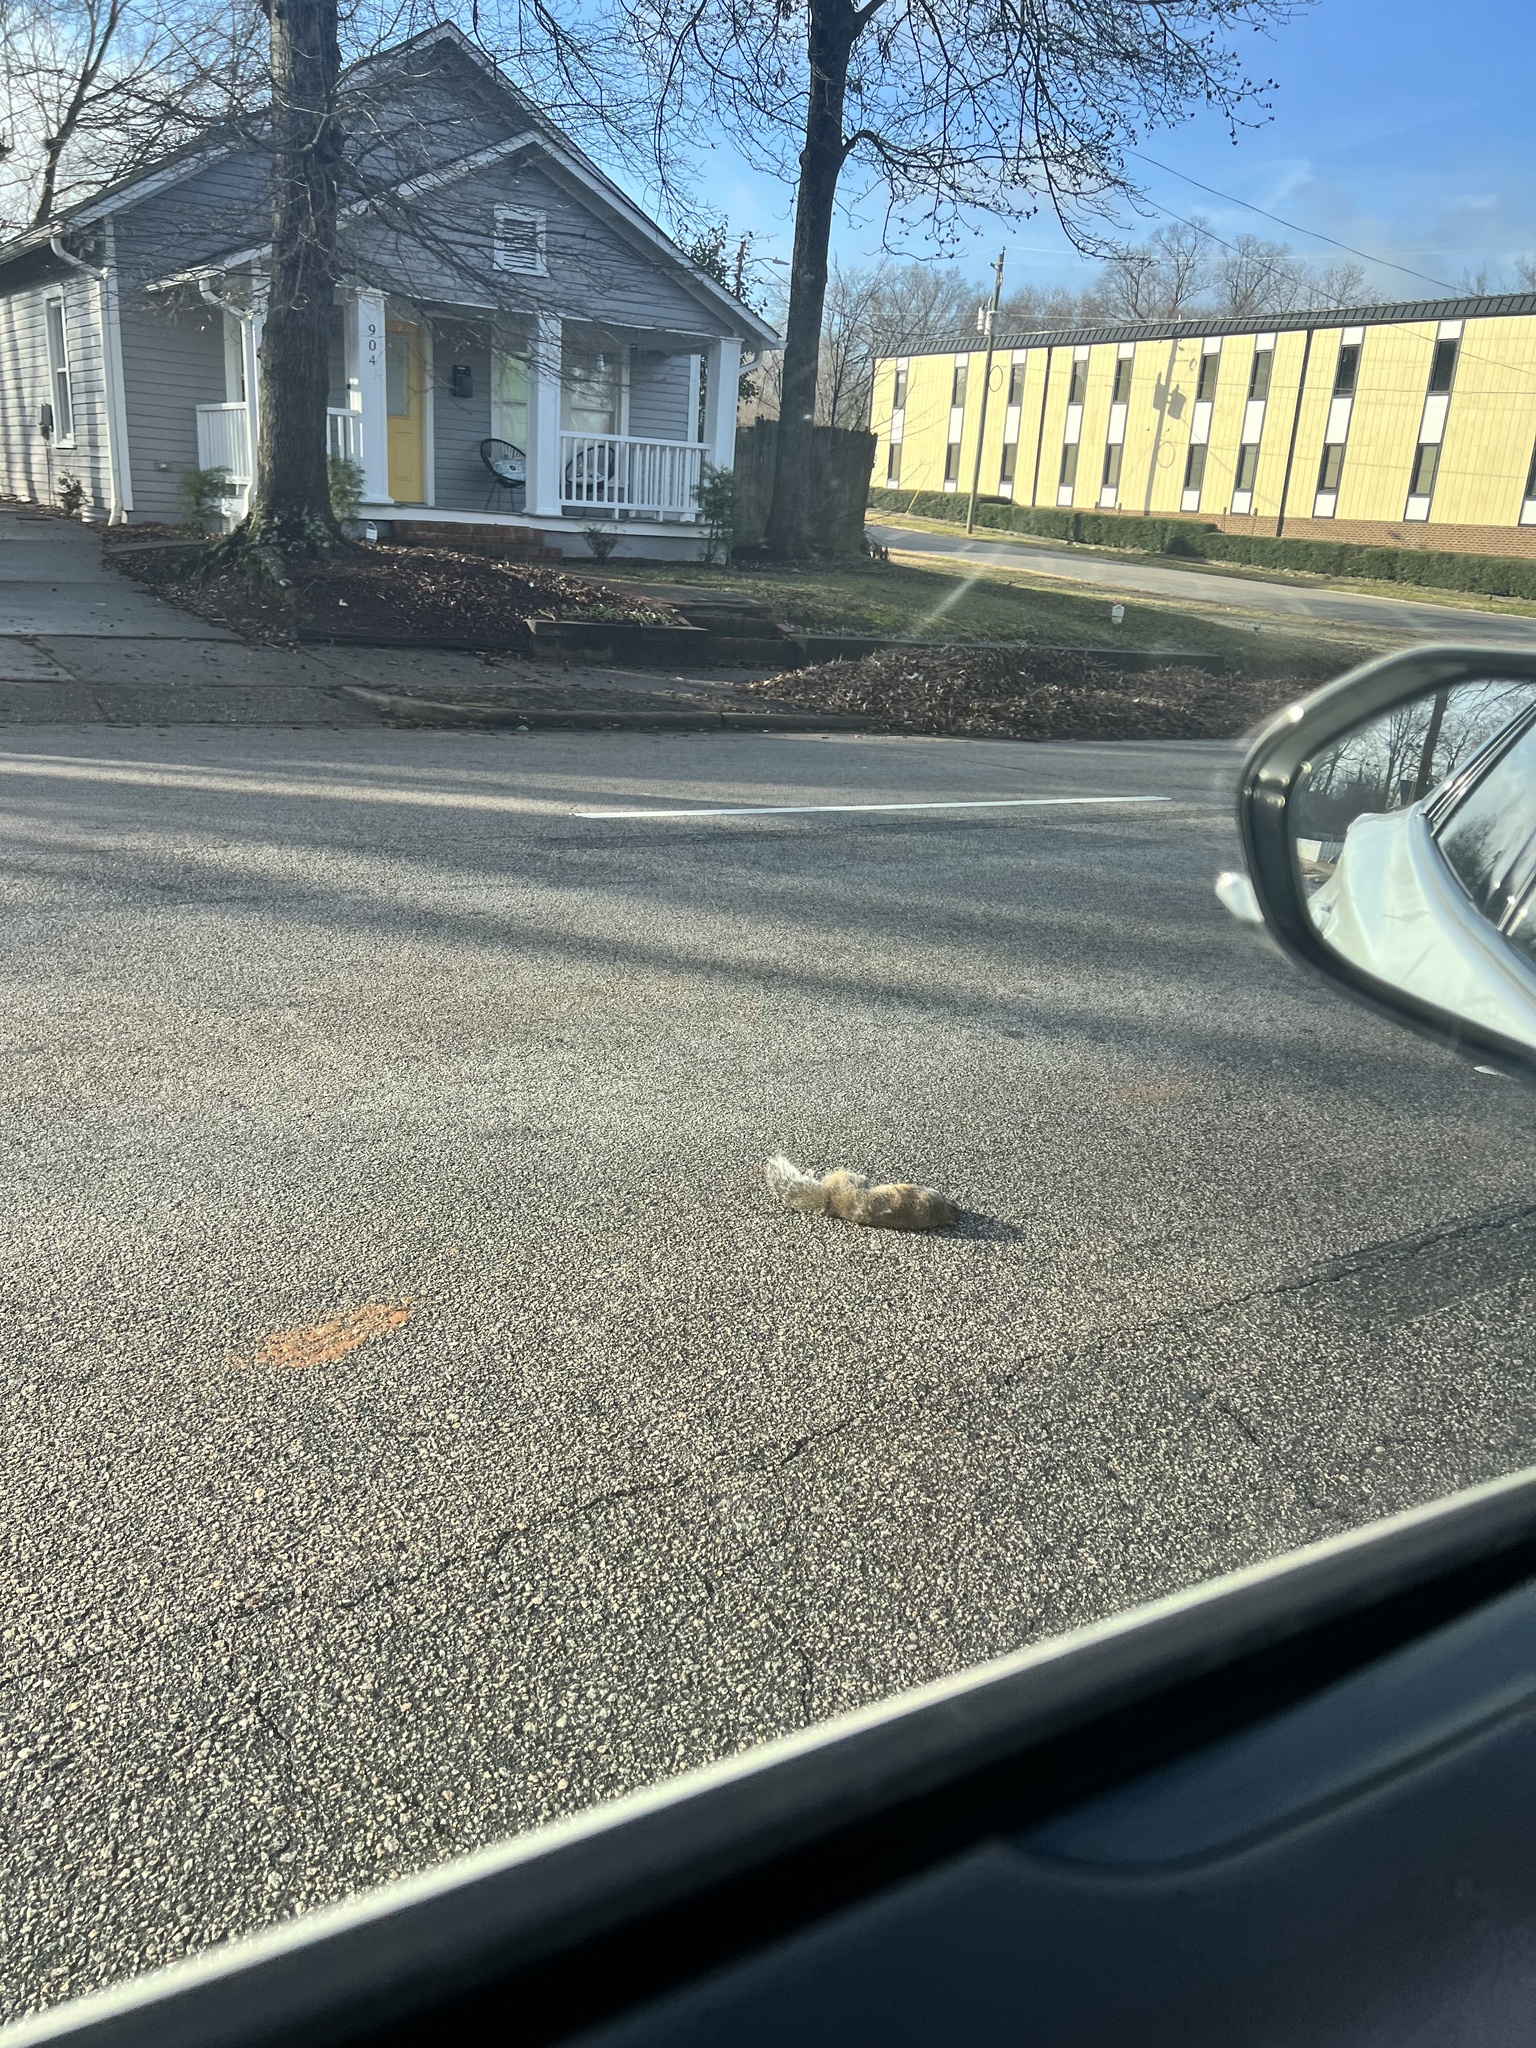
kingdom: Animalia
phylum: Chordata
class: Mammalia
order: Rodentia
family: Sciuridae
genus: Sciurus
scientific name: Sciurus carolinensis
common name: Eastern gray squirrel
